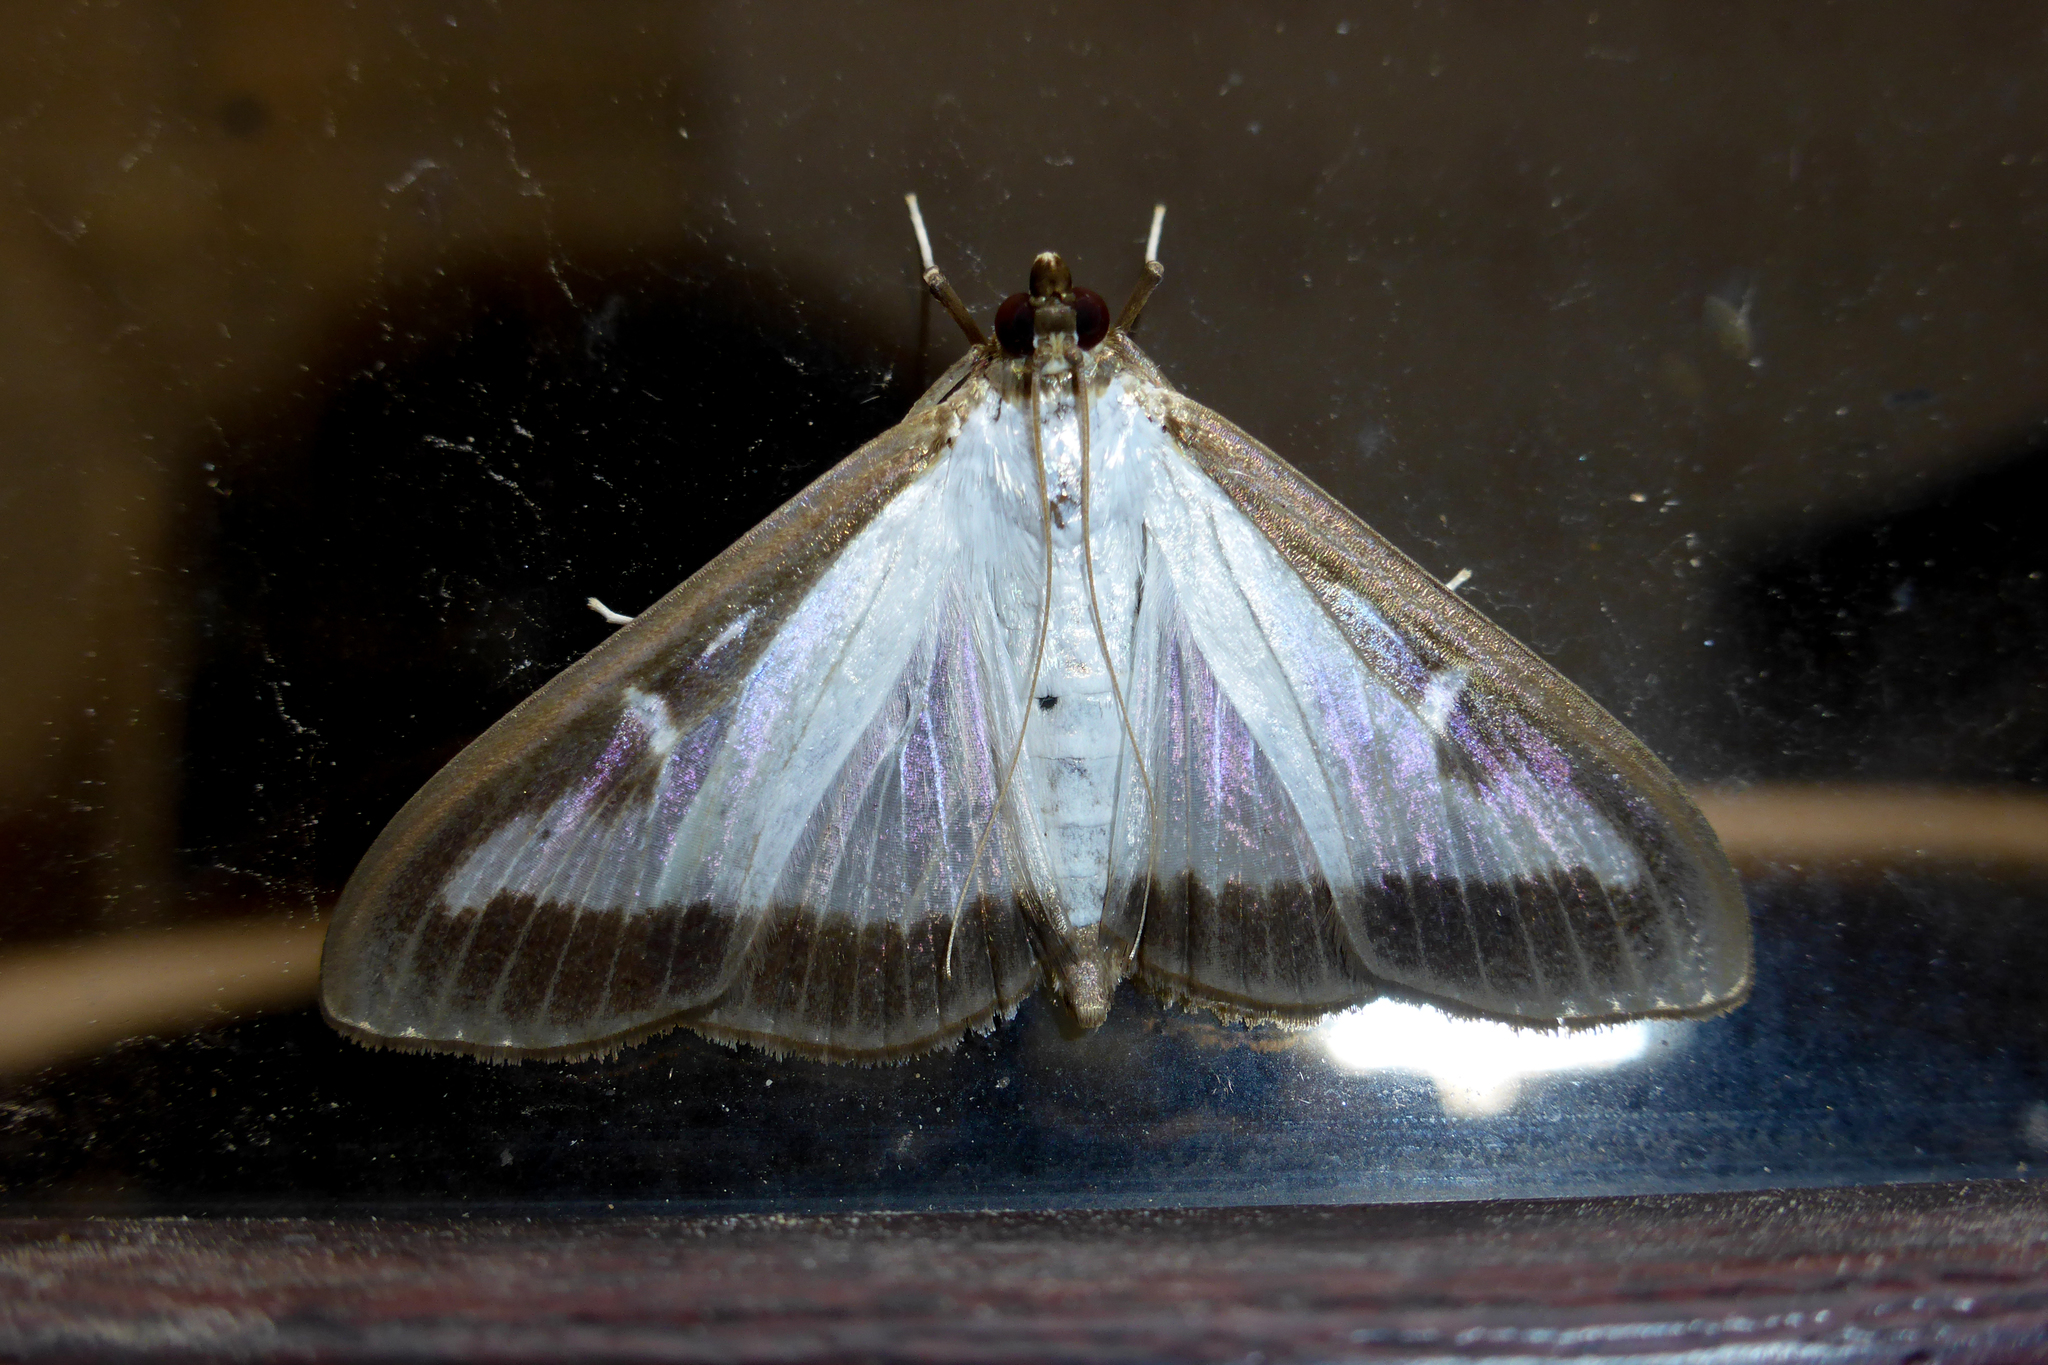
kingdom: Animalia
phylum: Arthropoda
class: Insecta
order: Lepidoptera
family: Crambidae
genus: Cydalima
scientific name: Cydalima perspectalis
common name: Box tree moth
